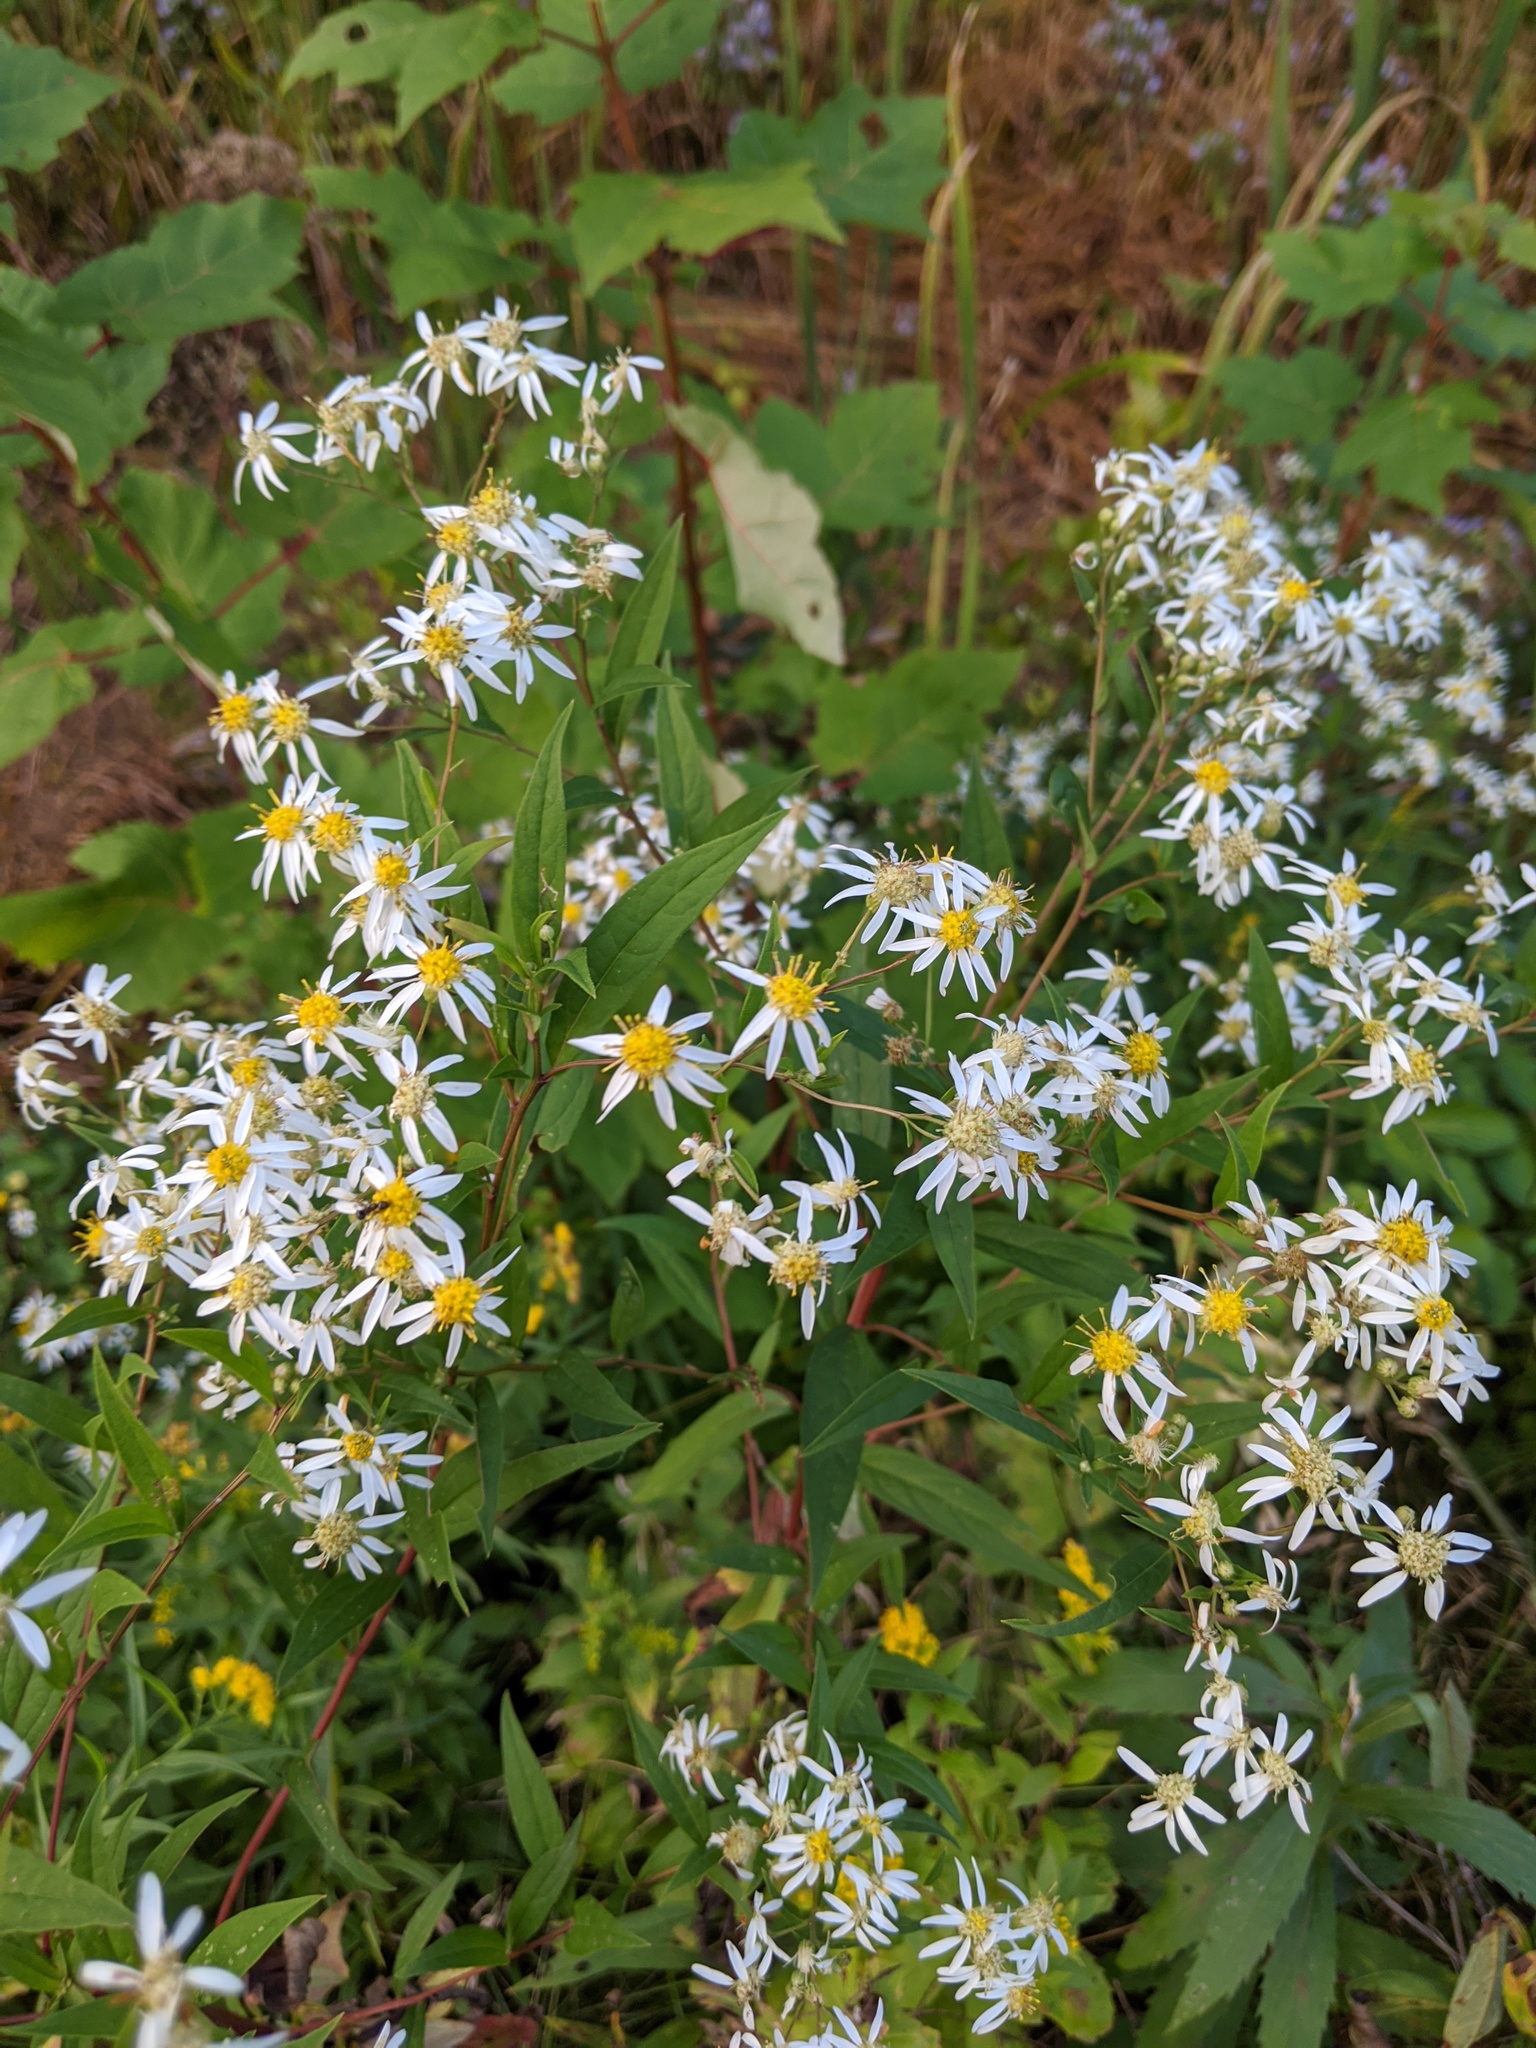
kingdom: Plantae
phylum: Tracheophyta
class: Magnoliopsida
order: Asterales
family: Asteraceae
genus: Doellingeria
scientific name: Doellingeria umbellata
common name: Flat-top white aster
